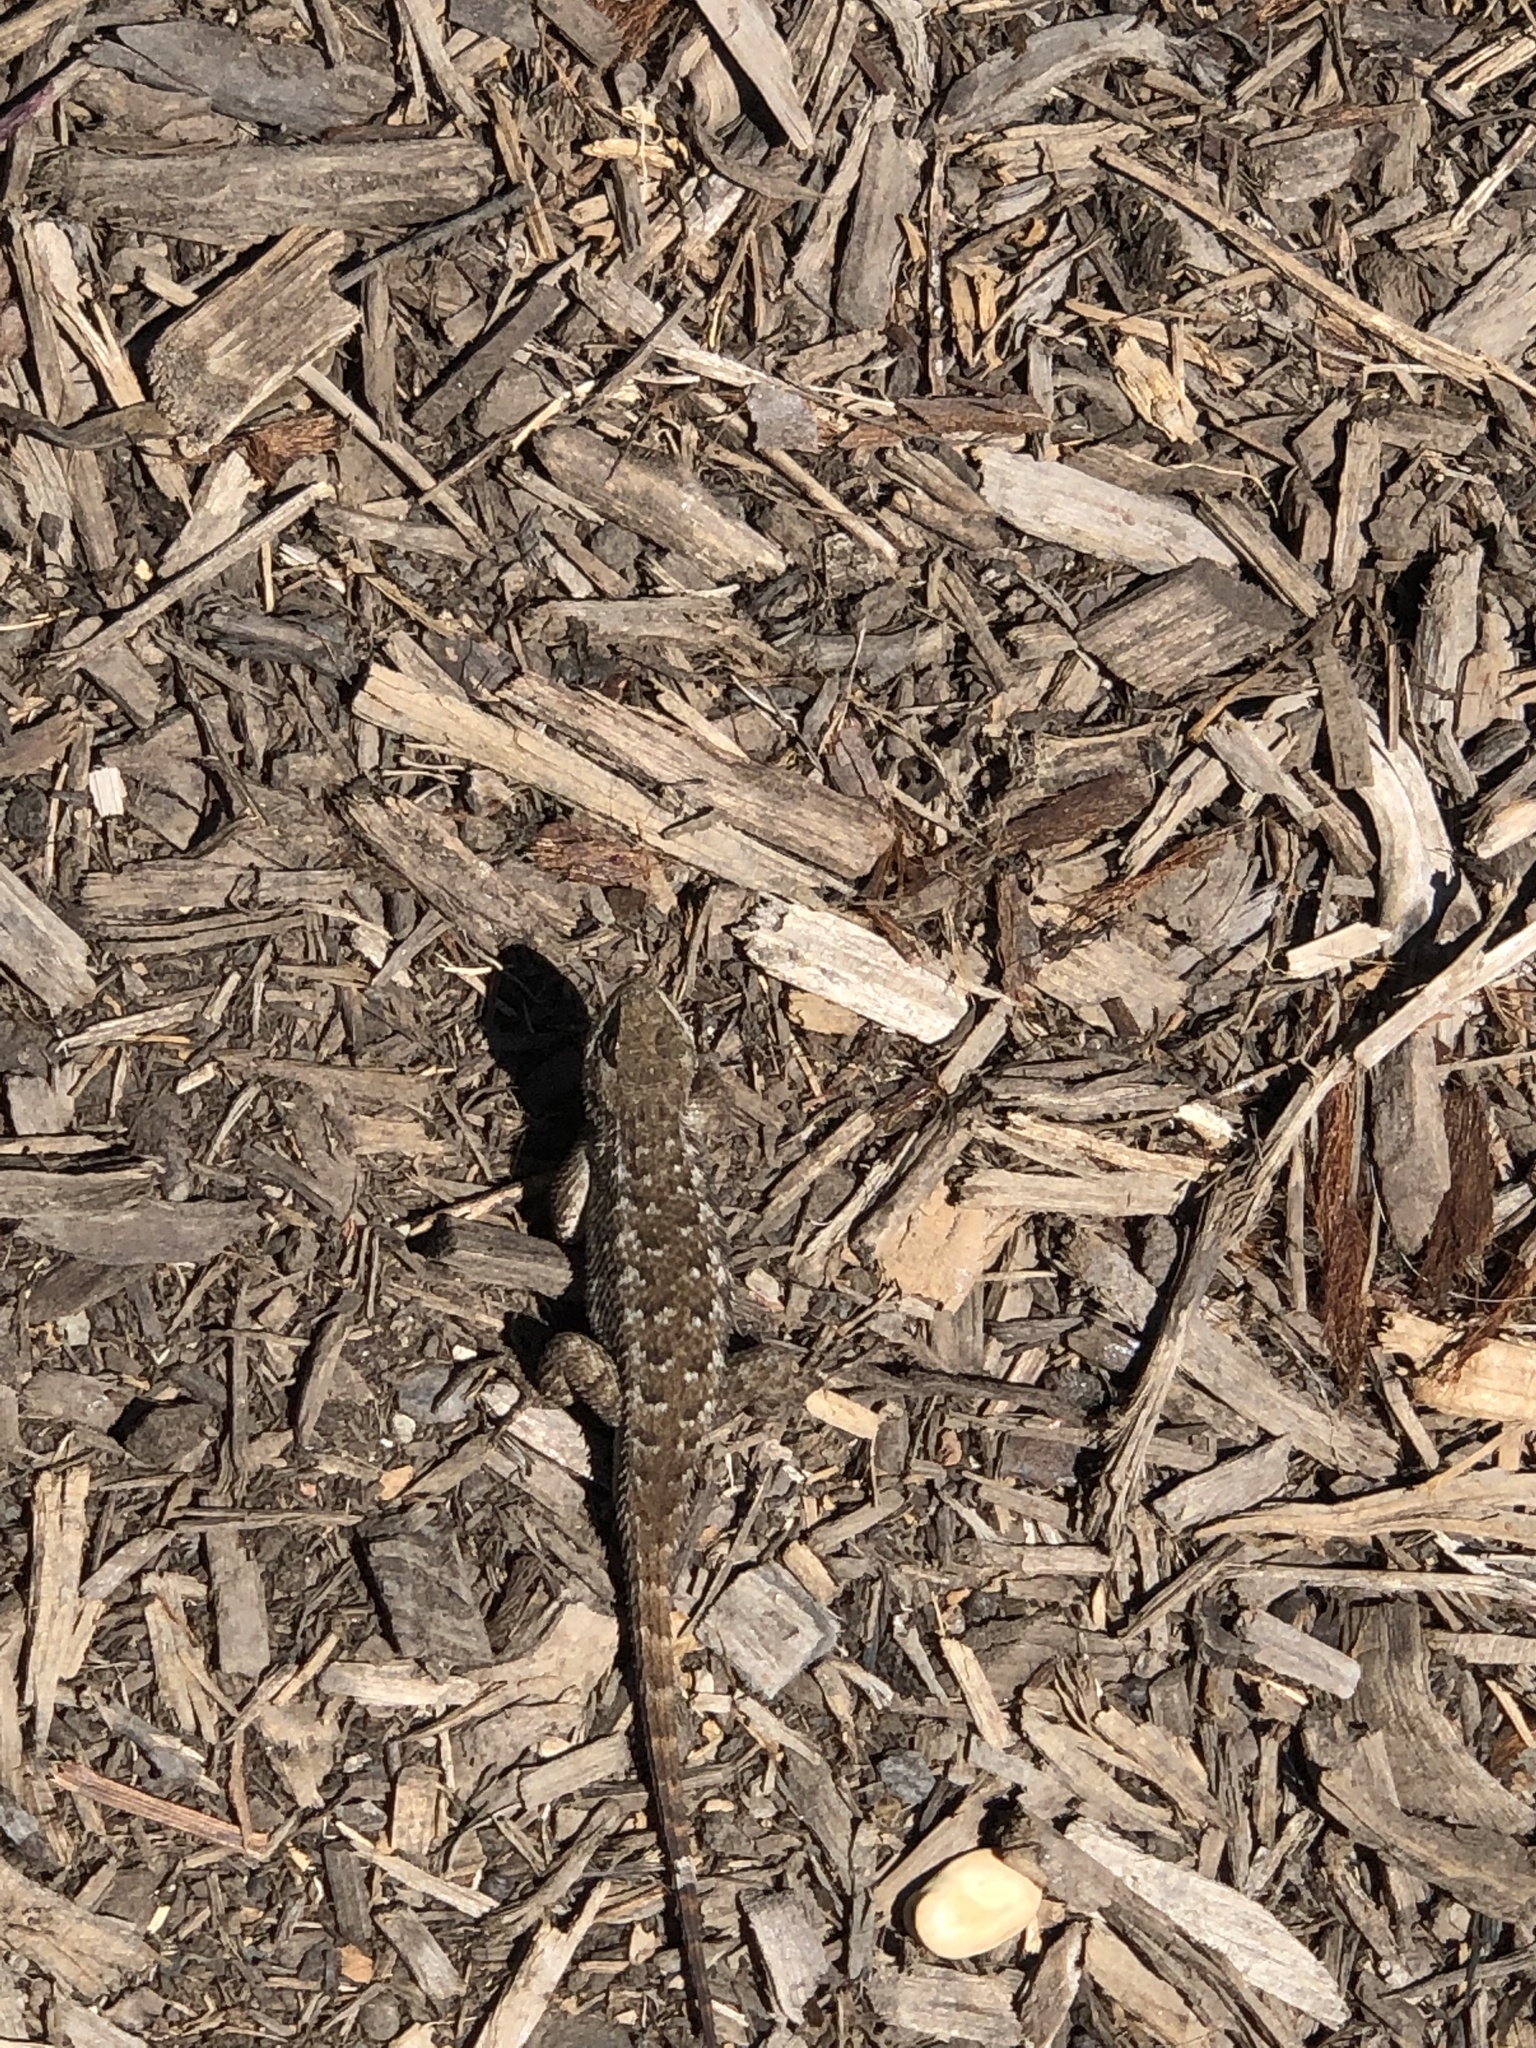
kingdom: Animalia
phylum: Chordata
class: Squamata
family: Phrynosomatidae
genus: Sceloporus
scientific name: Sceloporus occidentalis
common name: Western fence lizard
